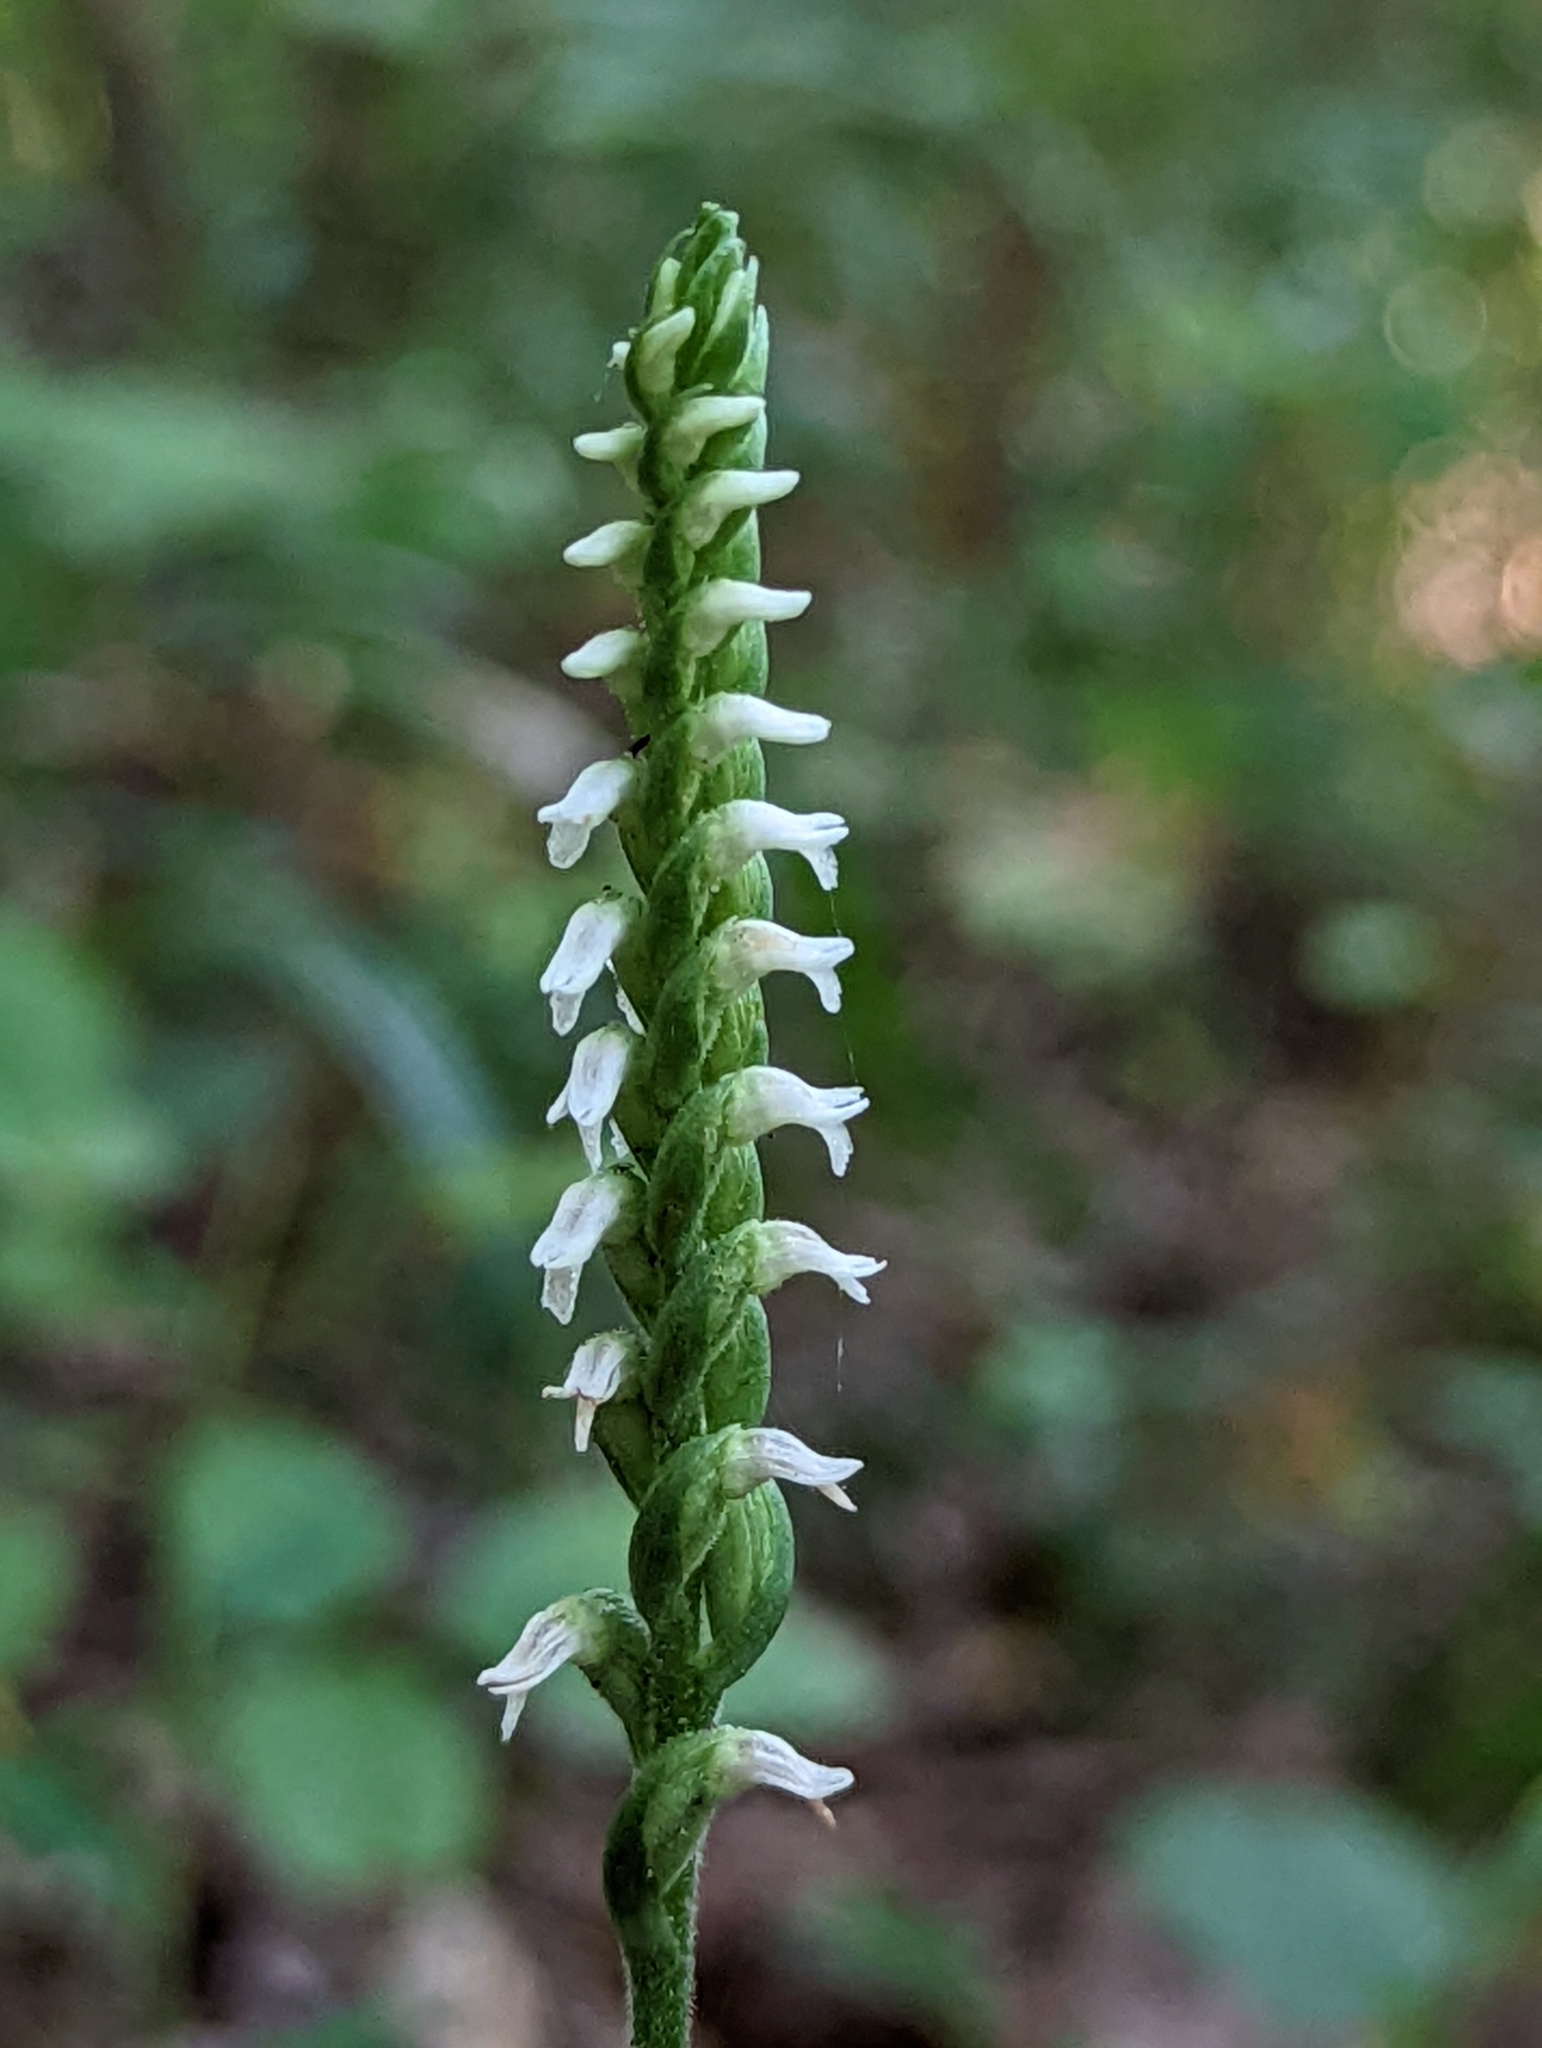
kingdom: Plantae
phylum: Tracheophyta
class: Liliopsida
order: Asparagales
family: Orchidaceae
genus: Spiranthes
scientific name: Spiranthes ovalis
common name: October ladies'-tresses
